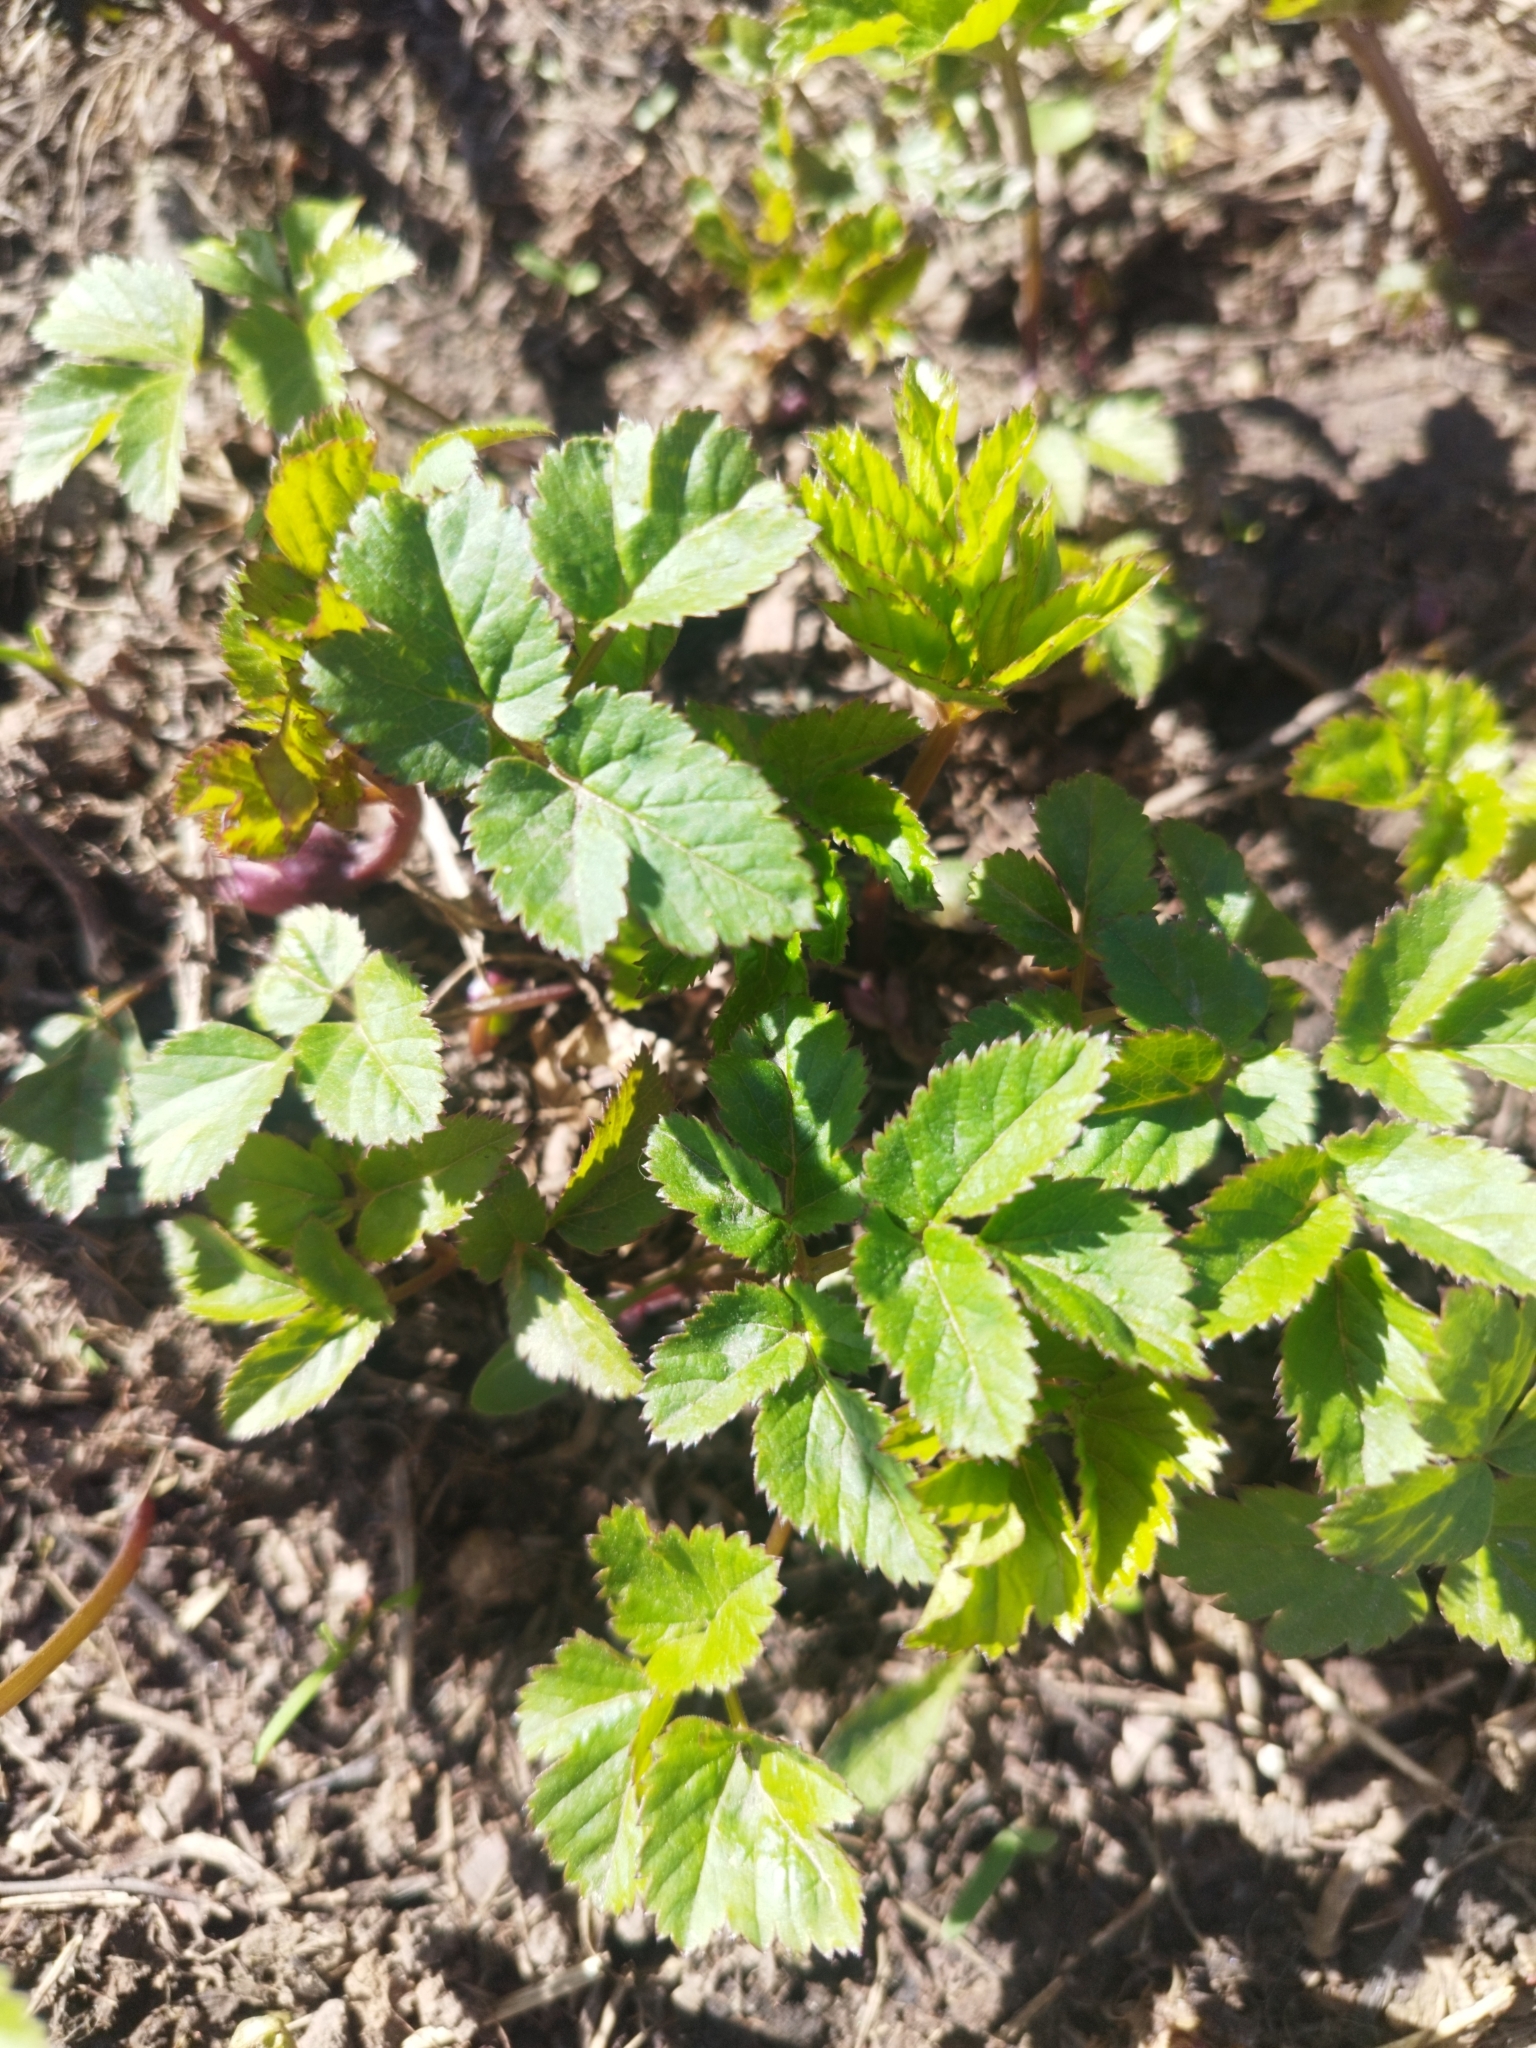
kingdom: Plantae
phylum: Tracheophyta
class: Magnoliopsida
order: Apiales
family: Apiaceae
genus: Aegopodium
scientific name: Aegopodium podagraria
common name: Ground-elder
